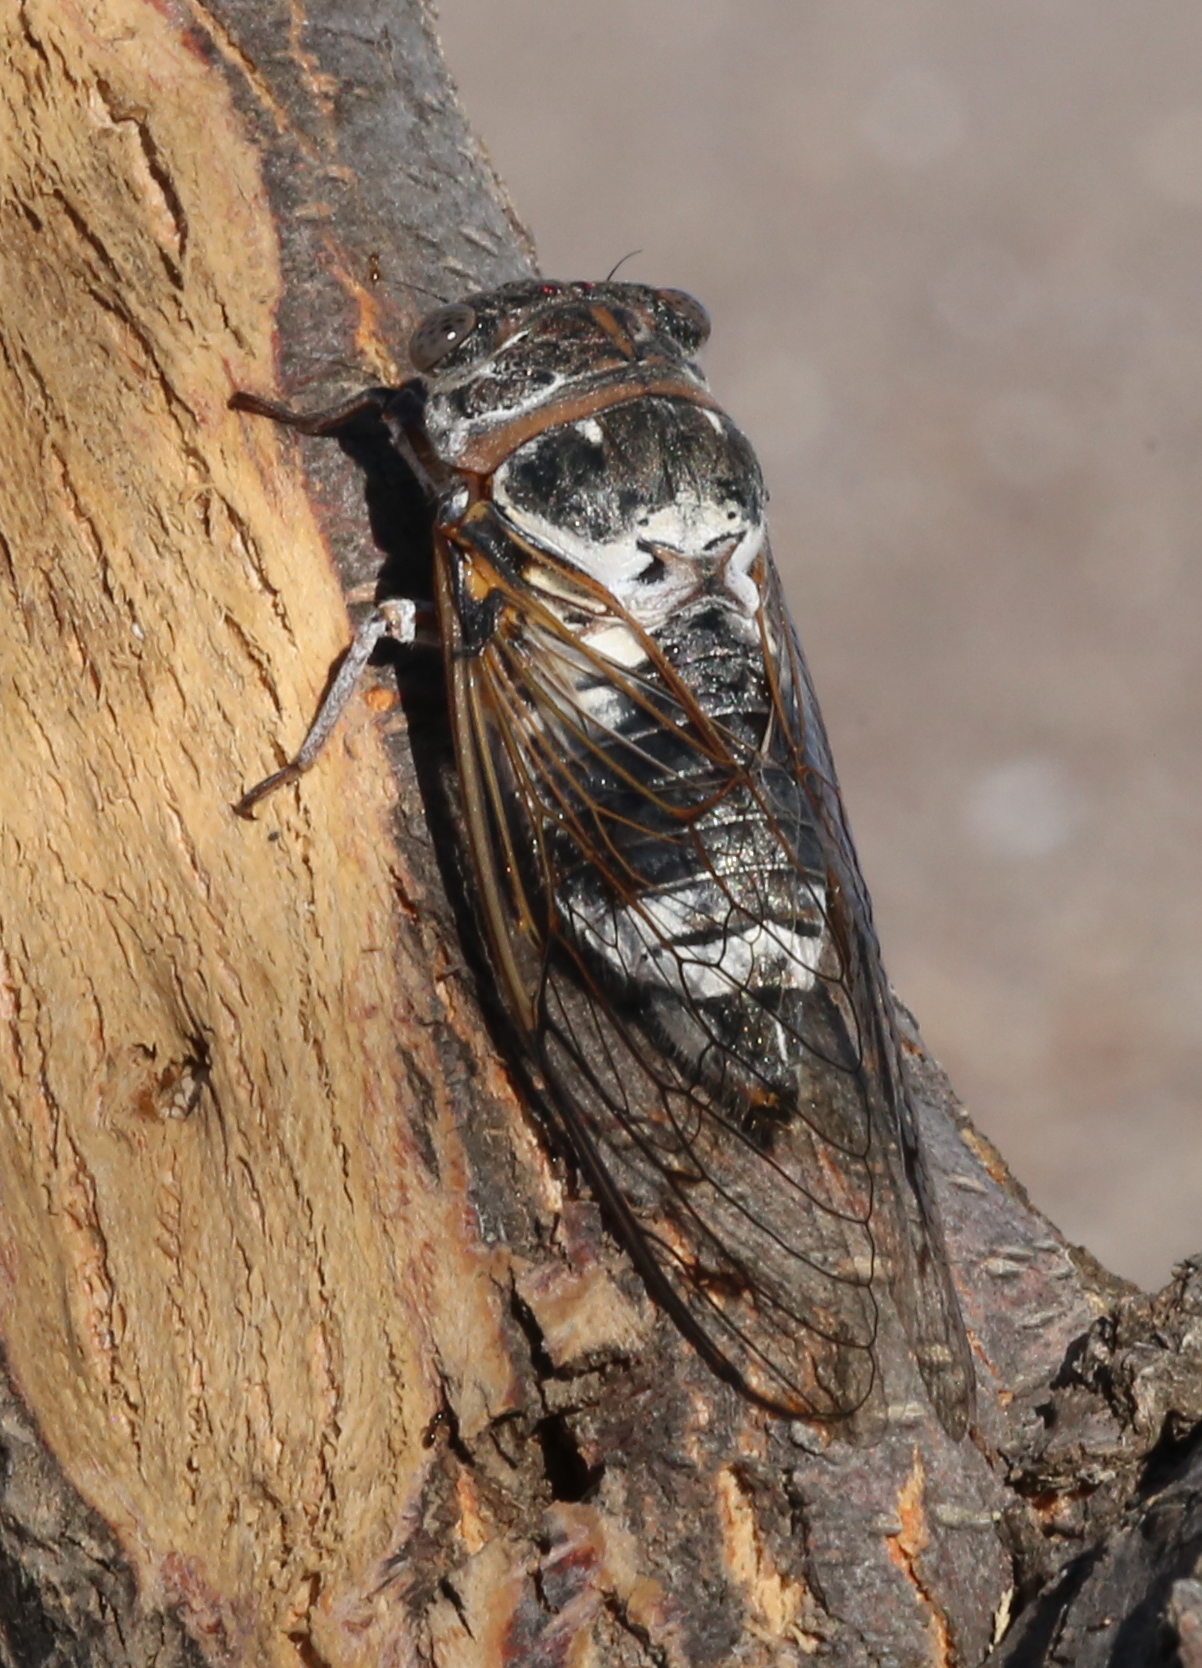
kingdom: Animalia
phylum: Arthropoda
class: Insecta
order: Hemiptera
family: Cicadidae
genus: Lyristes
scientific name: Lyristes plebejus
